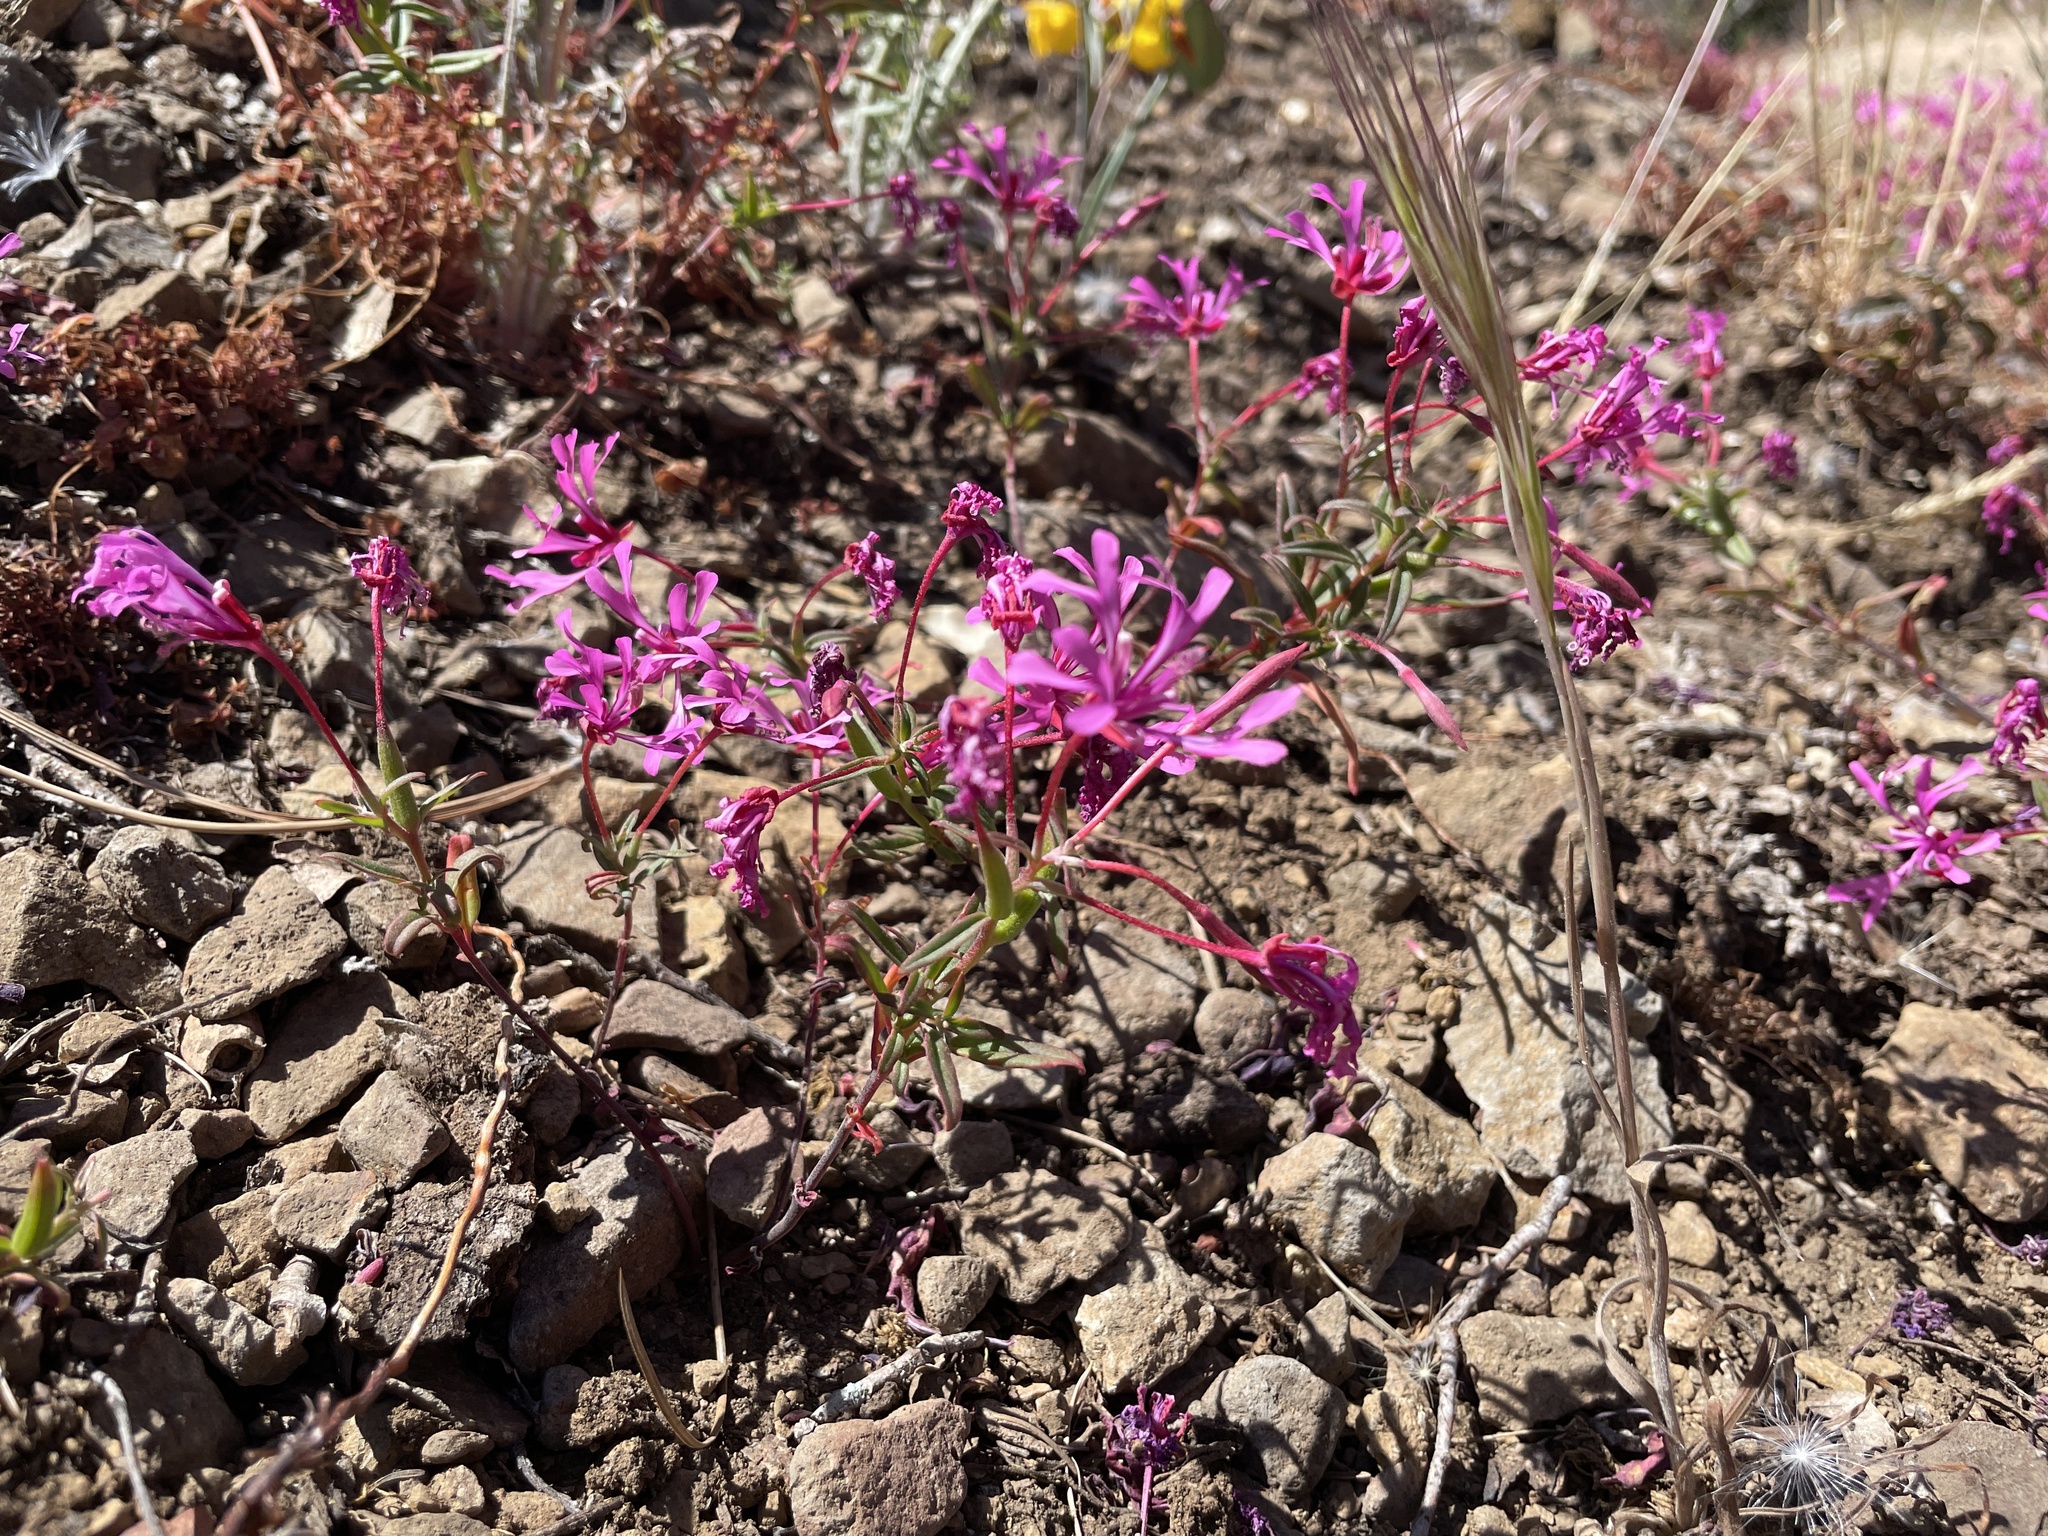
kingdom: Plantae
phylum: Tracheophyta
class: Magnoliopsida
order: Myrtales
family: Onagraceae
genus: Clarkia
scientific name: Clarkia concinna
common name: Red-ribbons
